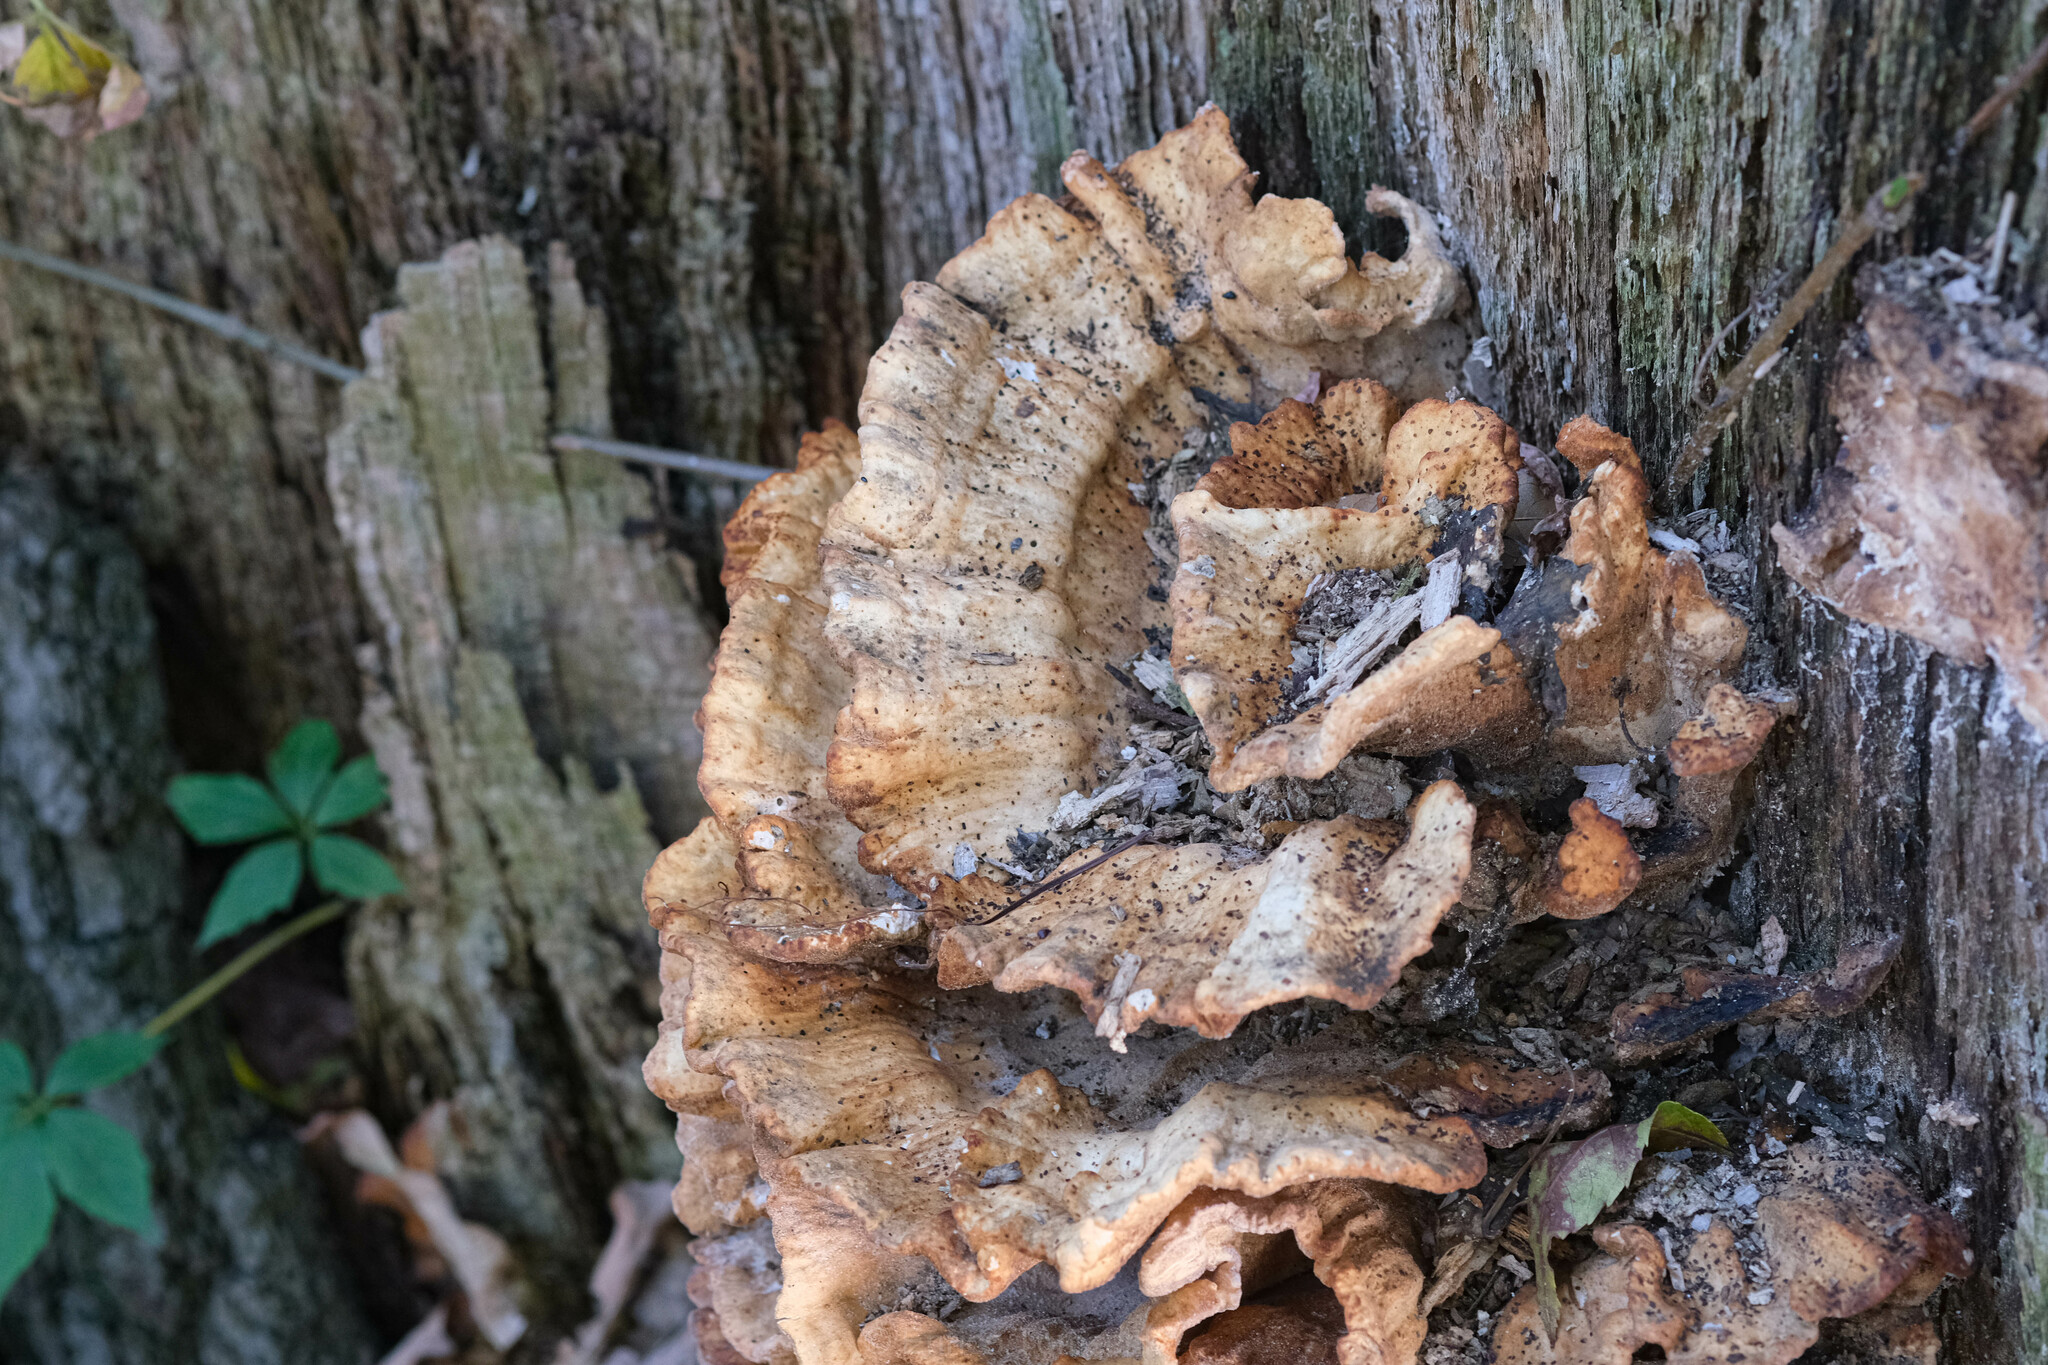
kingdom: Fungi
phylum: Basidiomycota
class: Agaricomycetes
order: Polyporales
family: Laetiporaceae
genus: Laetiporus
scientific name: Laetiporus sulphureus
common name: Chicken of the woods
